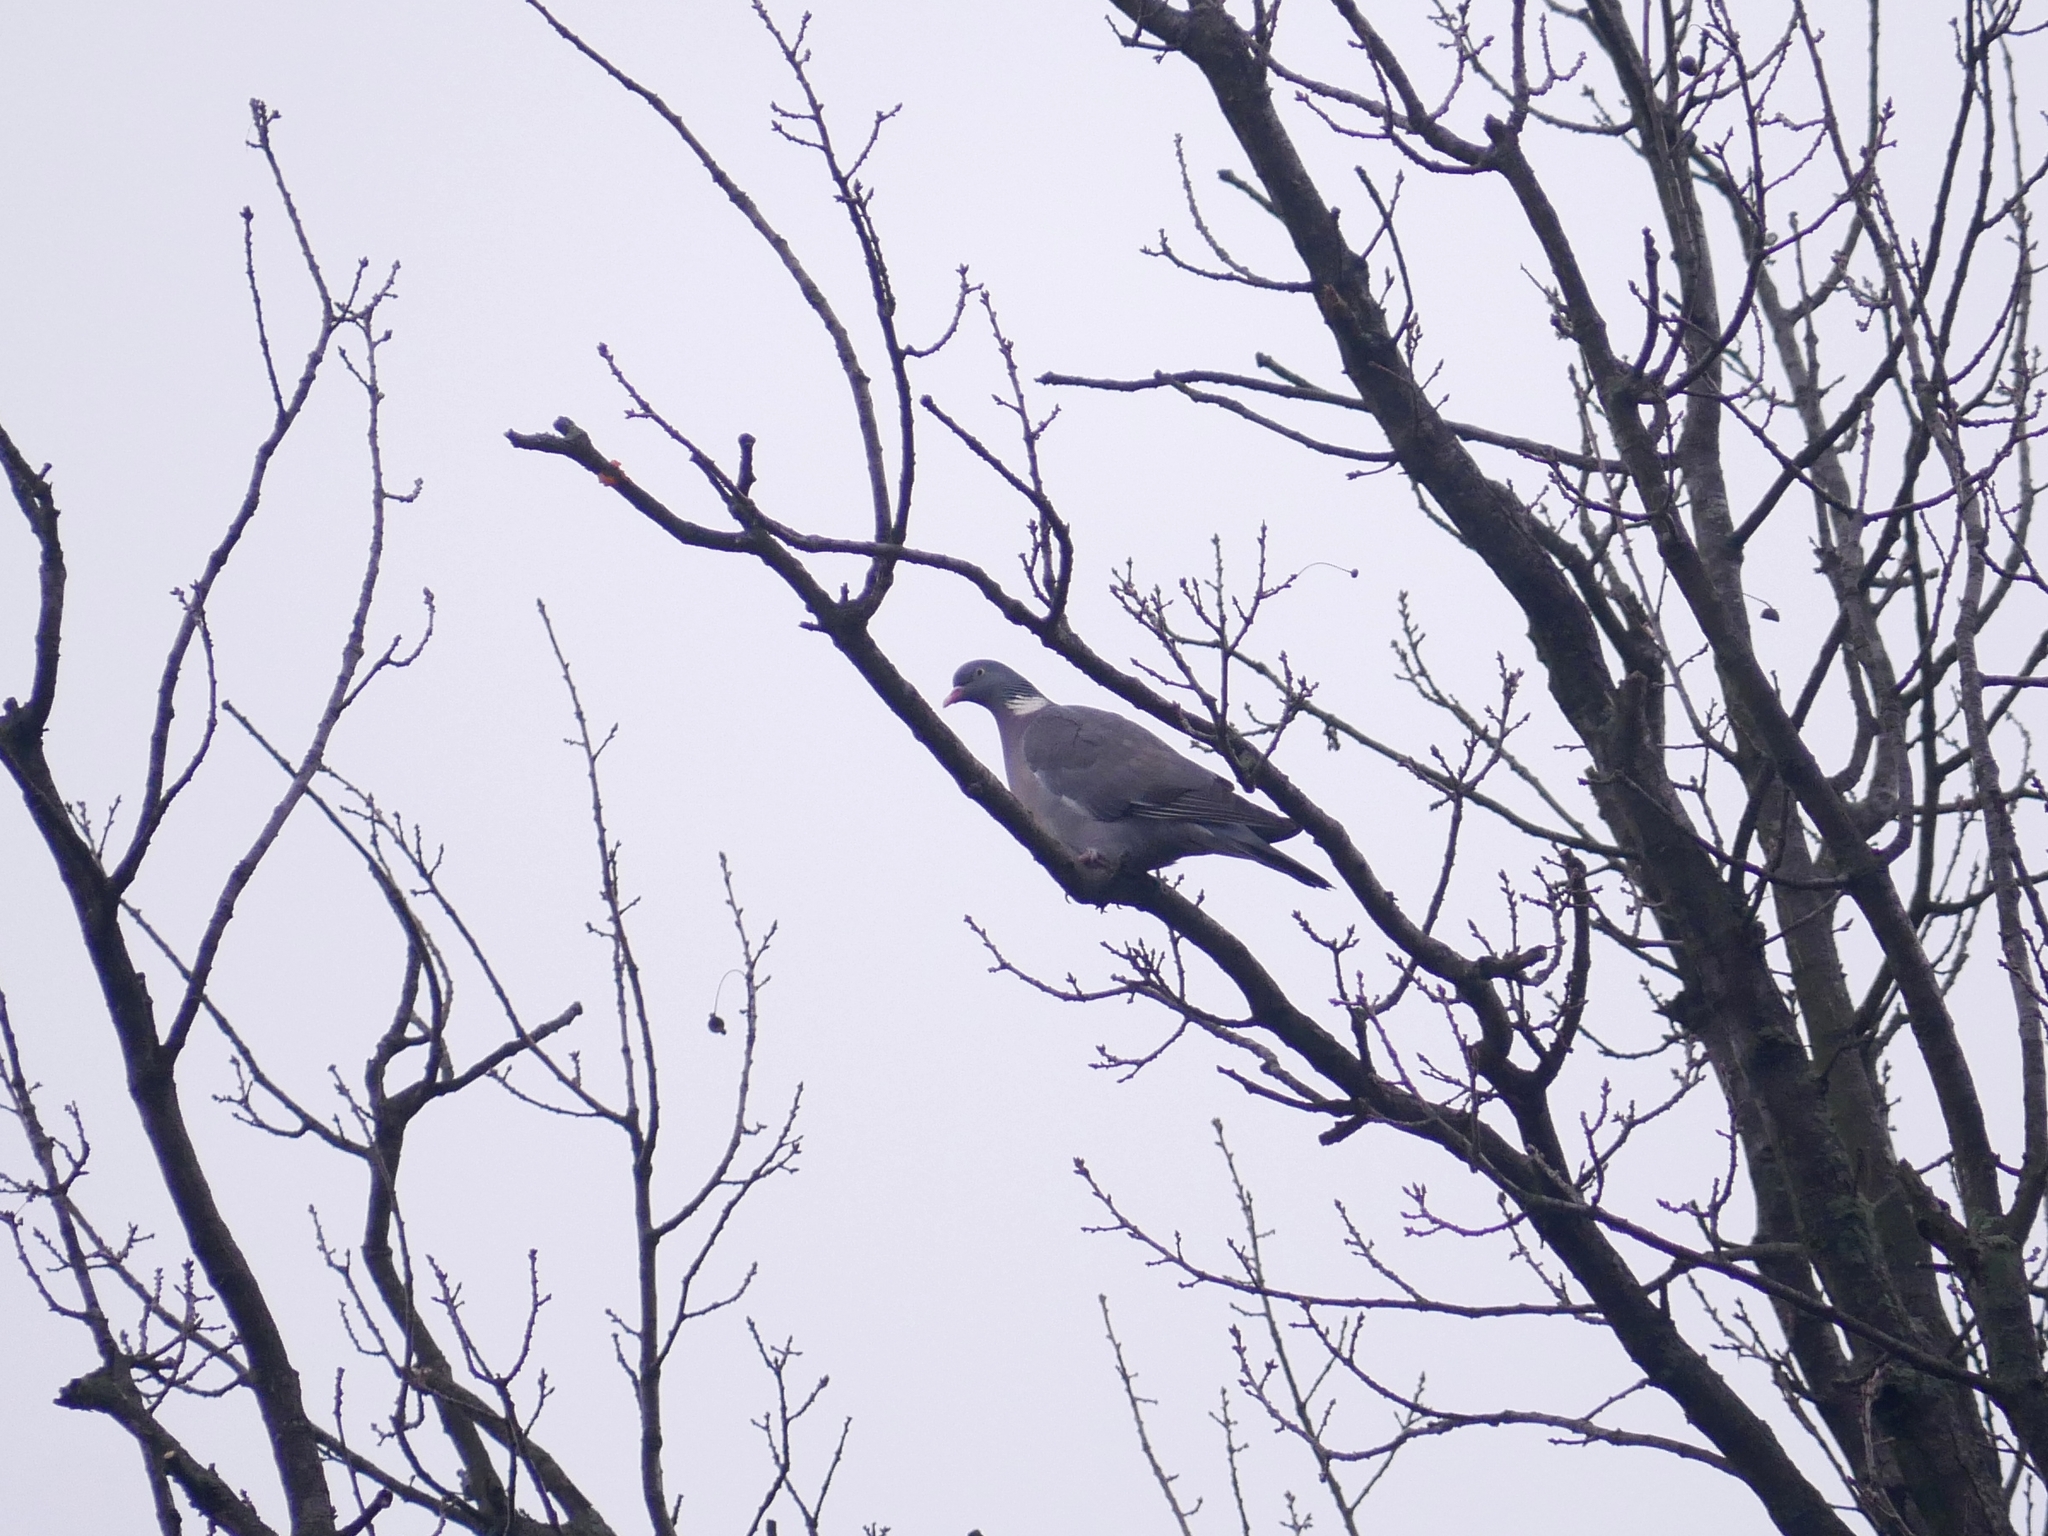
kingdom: Animalia
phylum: Chordata
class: Aves
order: Columbiformes
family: Columbidae
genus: Columba
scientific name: Columba palumbus
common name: Common wood pigeon
